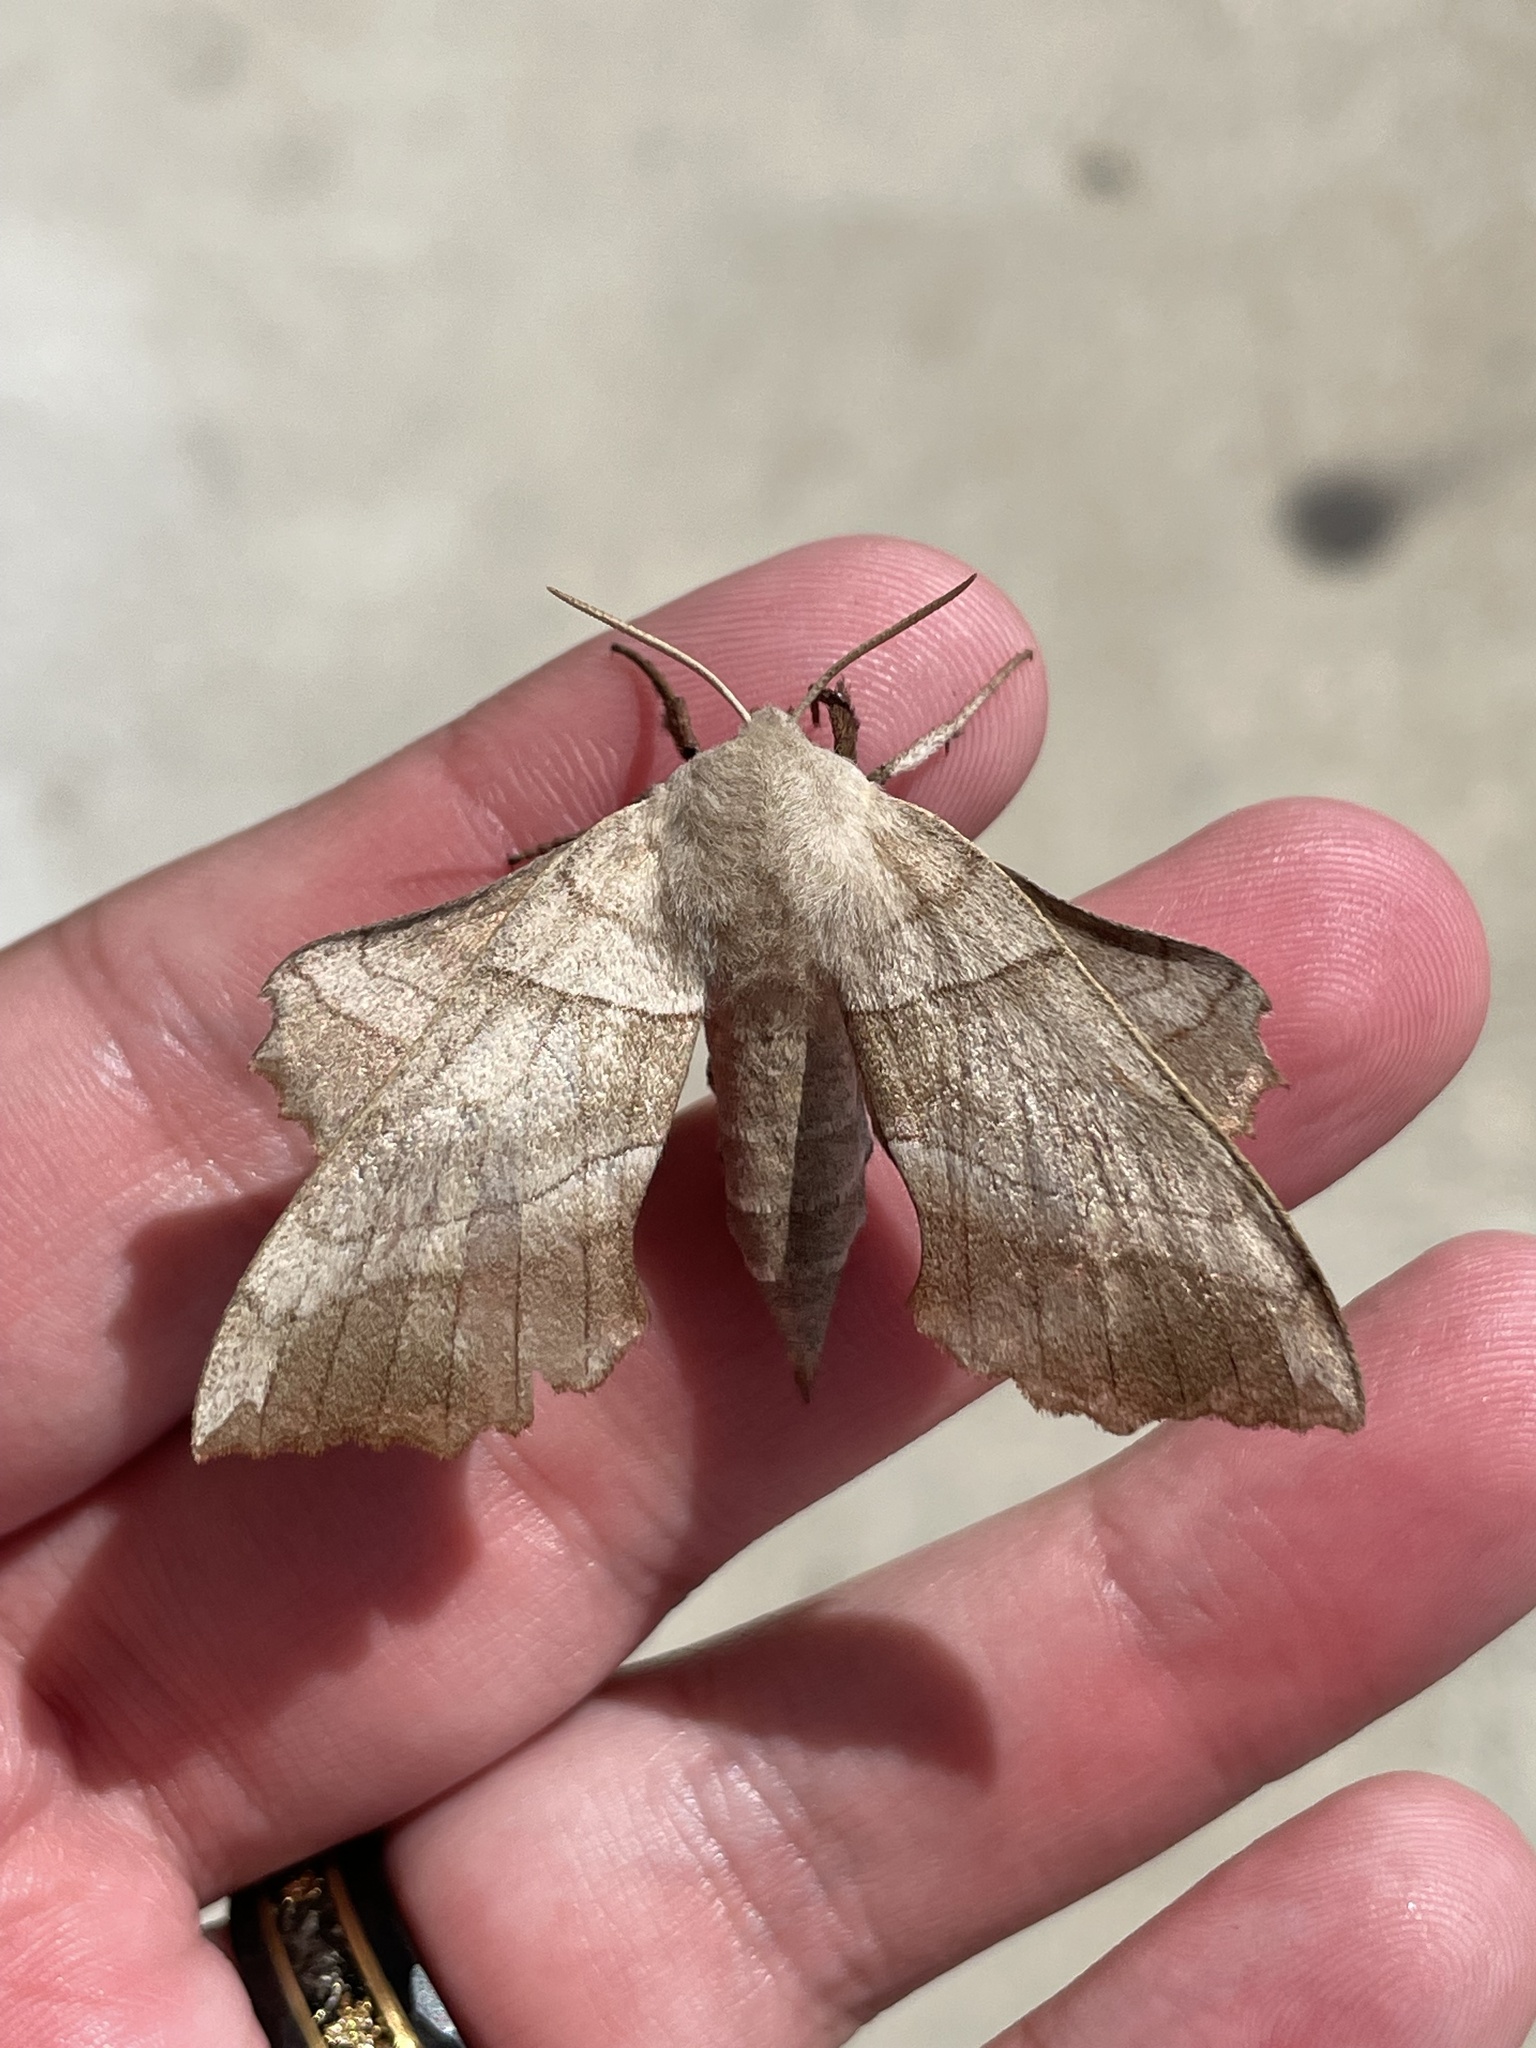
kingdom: Animalia
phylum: Arthropoda
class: Insecta
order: Lepidoptera
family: Sphingidae
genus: Amorpha
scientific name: Amorpha juglandis
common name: Walnut sphinx
